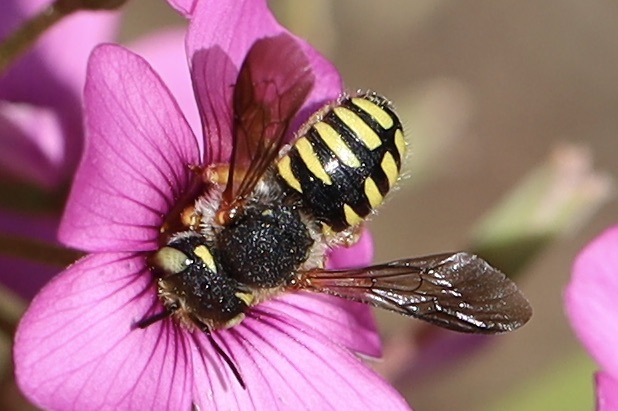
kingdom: Animalia
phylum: Arthropoda
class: Insecta
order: Hymenoptera
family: Megachilidae
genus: Anthidium
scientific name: Anthidium oblongatum
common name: Oblong wool carder bee
